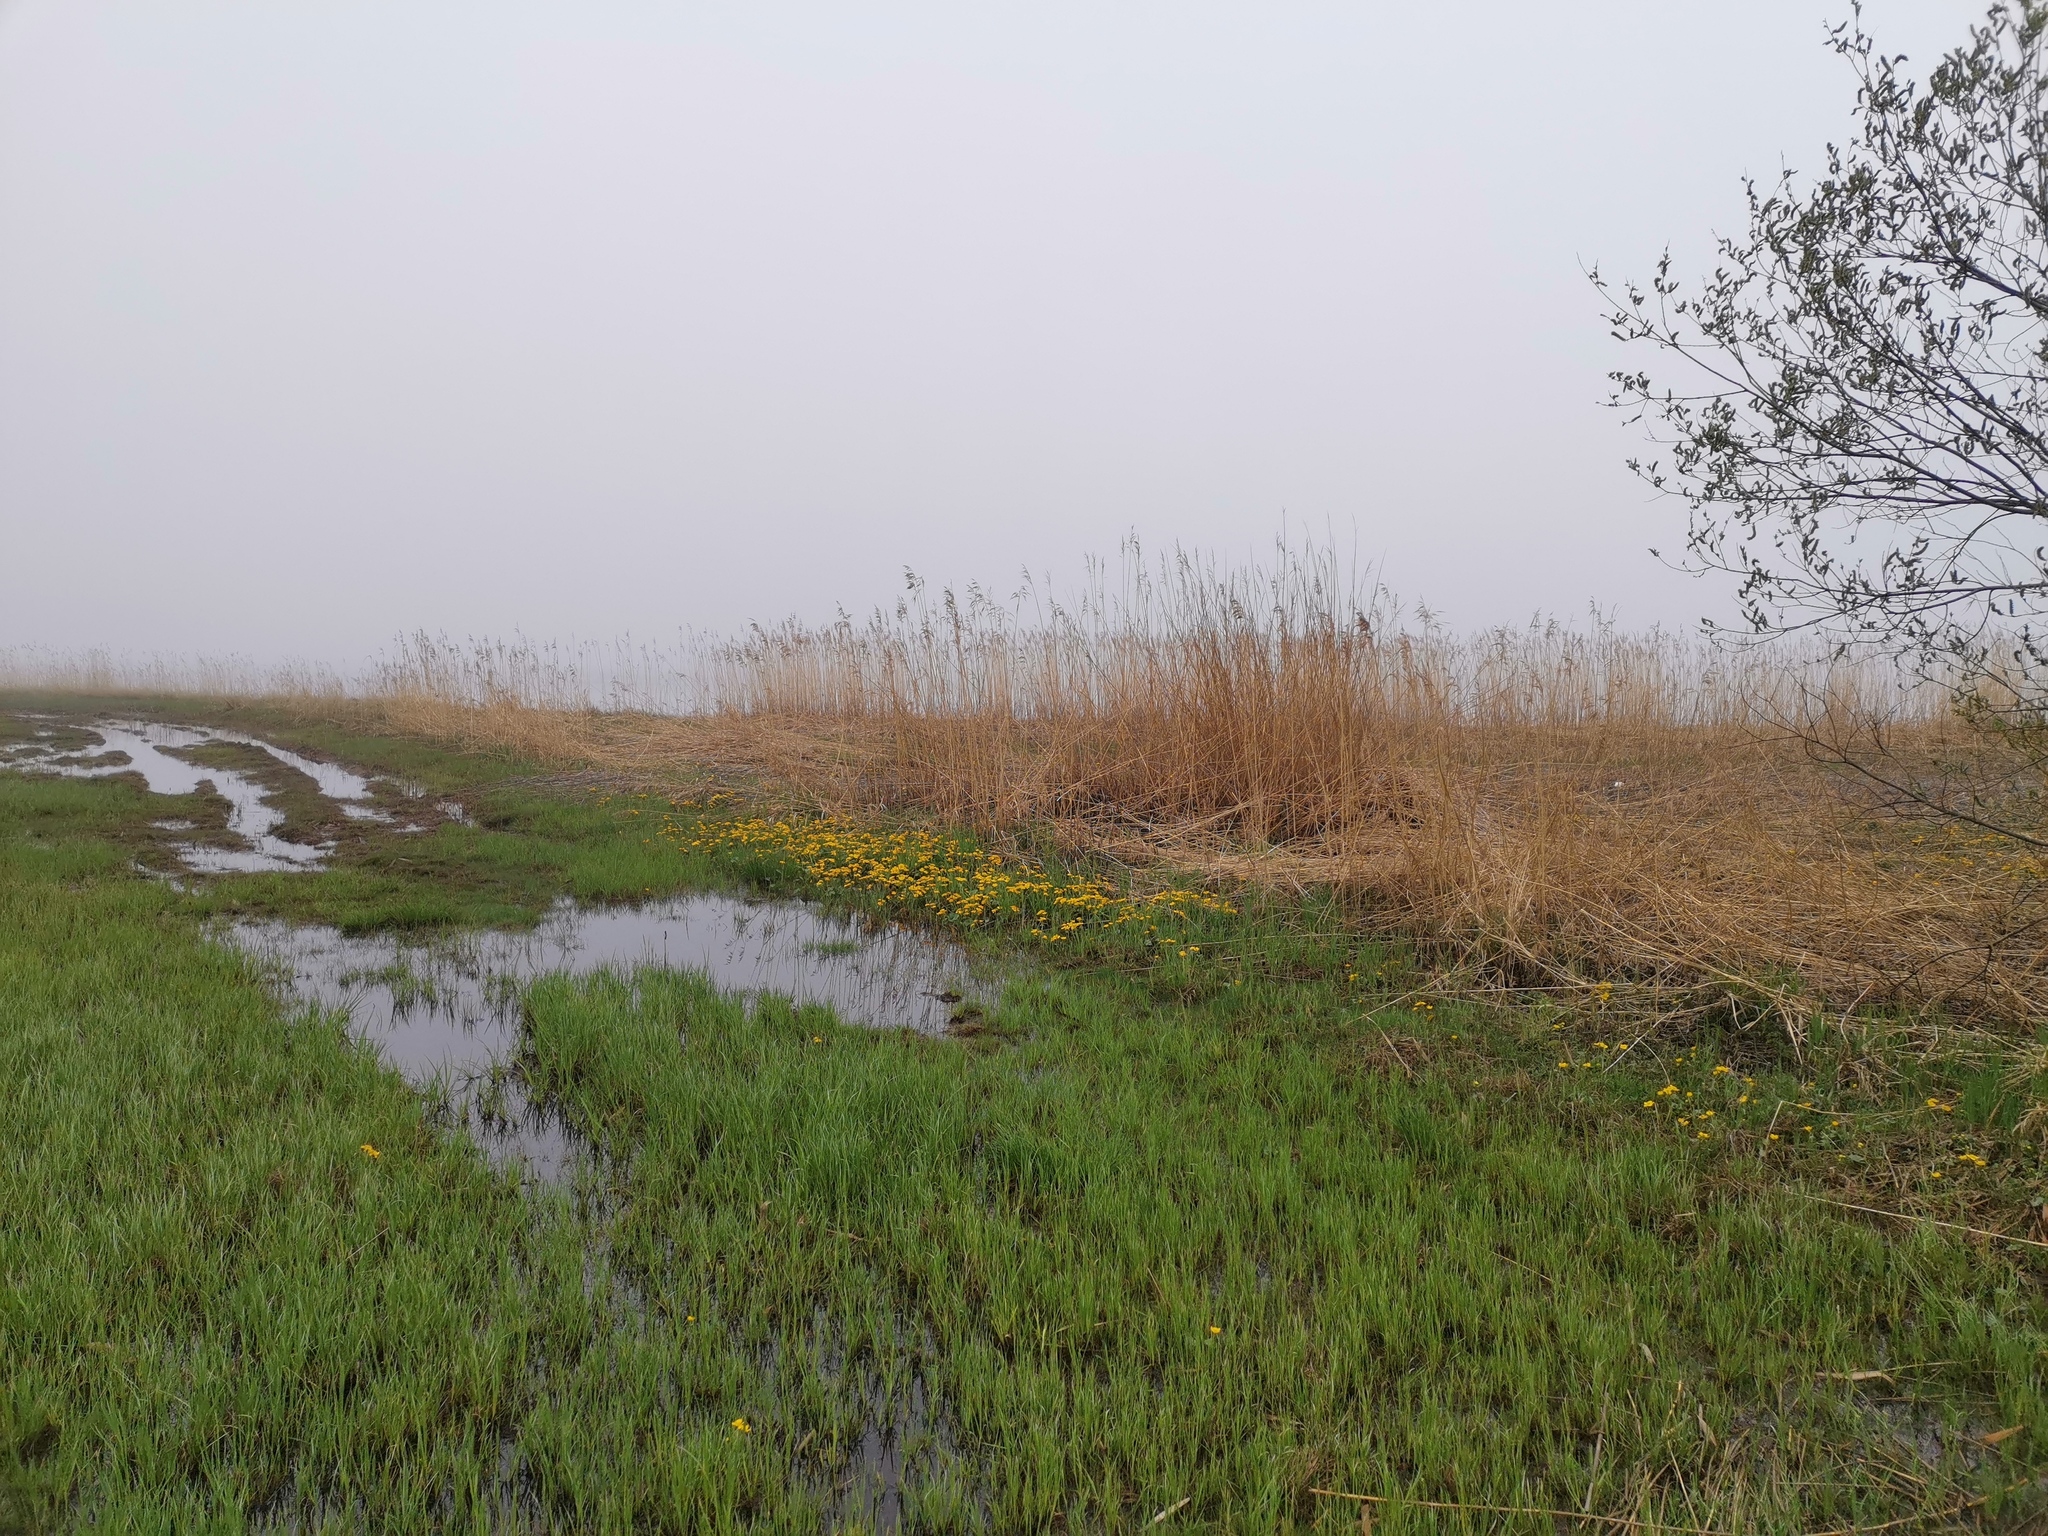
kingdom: Plantae
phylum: Tracheophyta
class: Magnoliopsida
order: Ranunculales
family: Ranunculaceae
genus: Caltha
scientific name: Caltha palustris
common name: Marsh marigold
